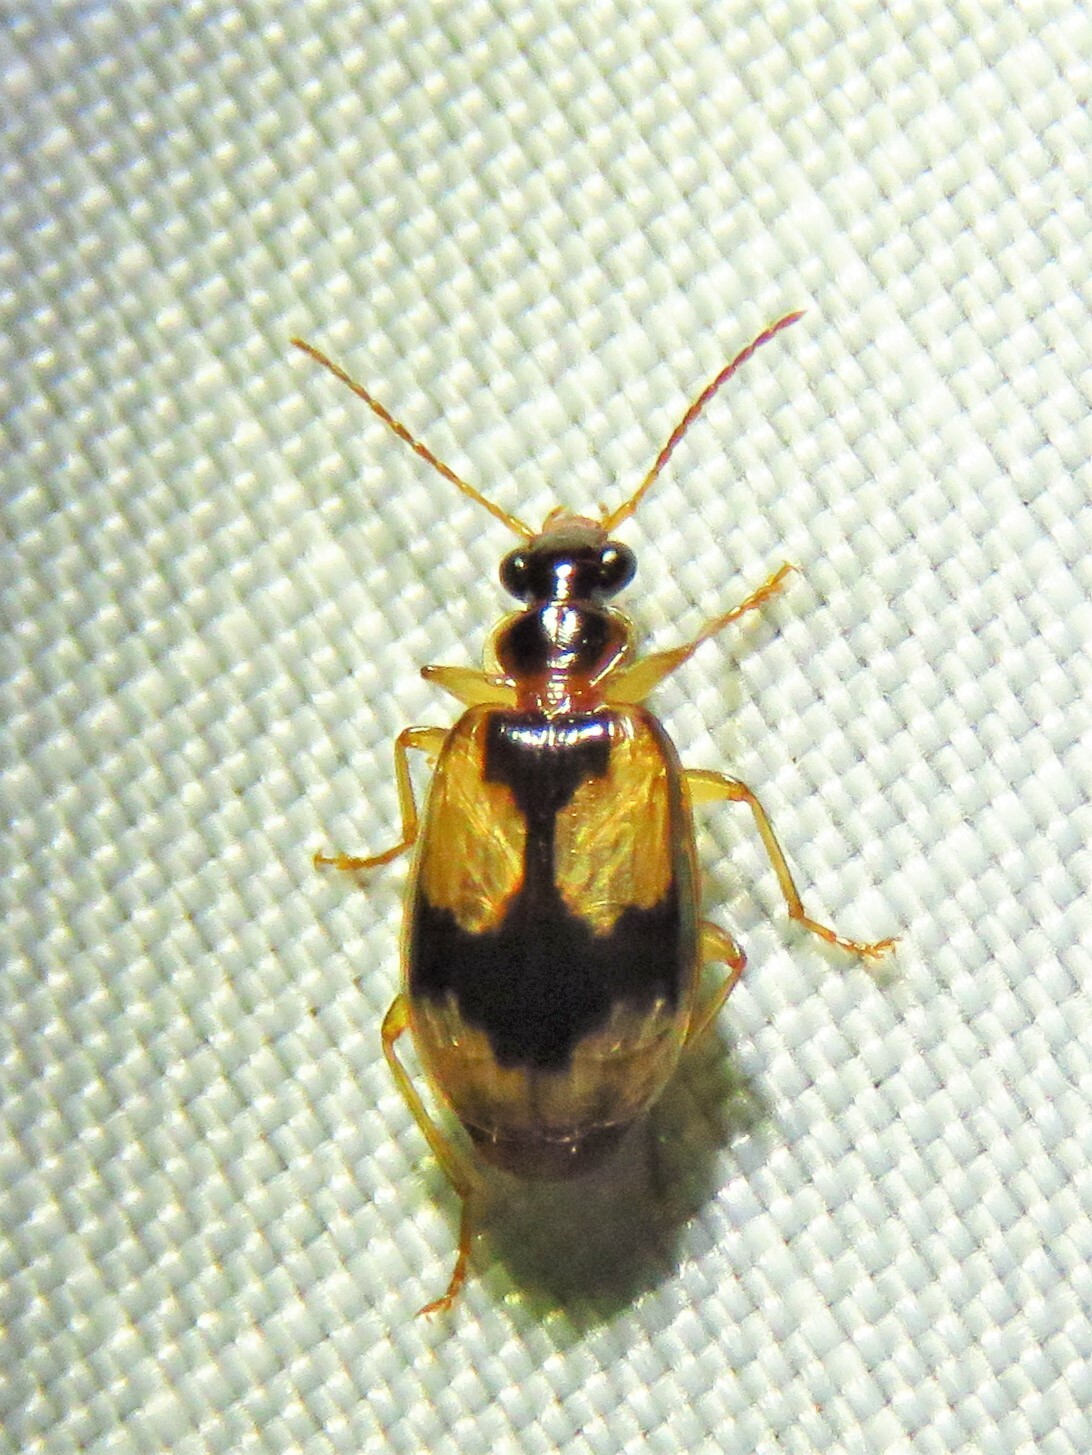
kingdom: Animalia
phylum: Arthropoda
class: Insecta
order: Coleoptera
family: Carabidae
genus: Lebia
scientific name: Lebia fuscata
